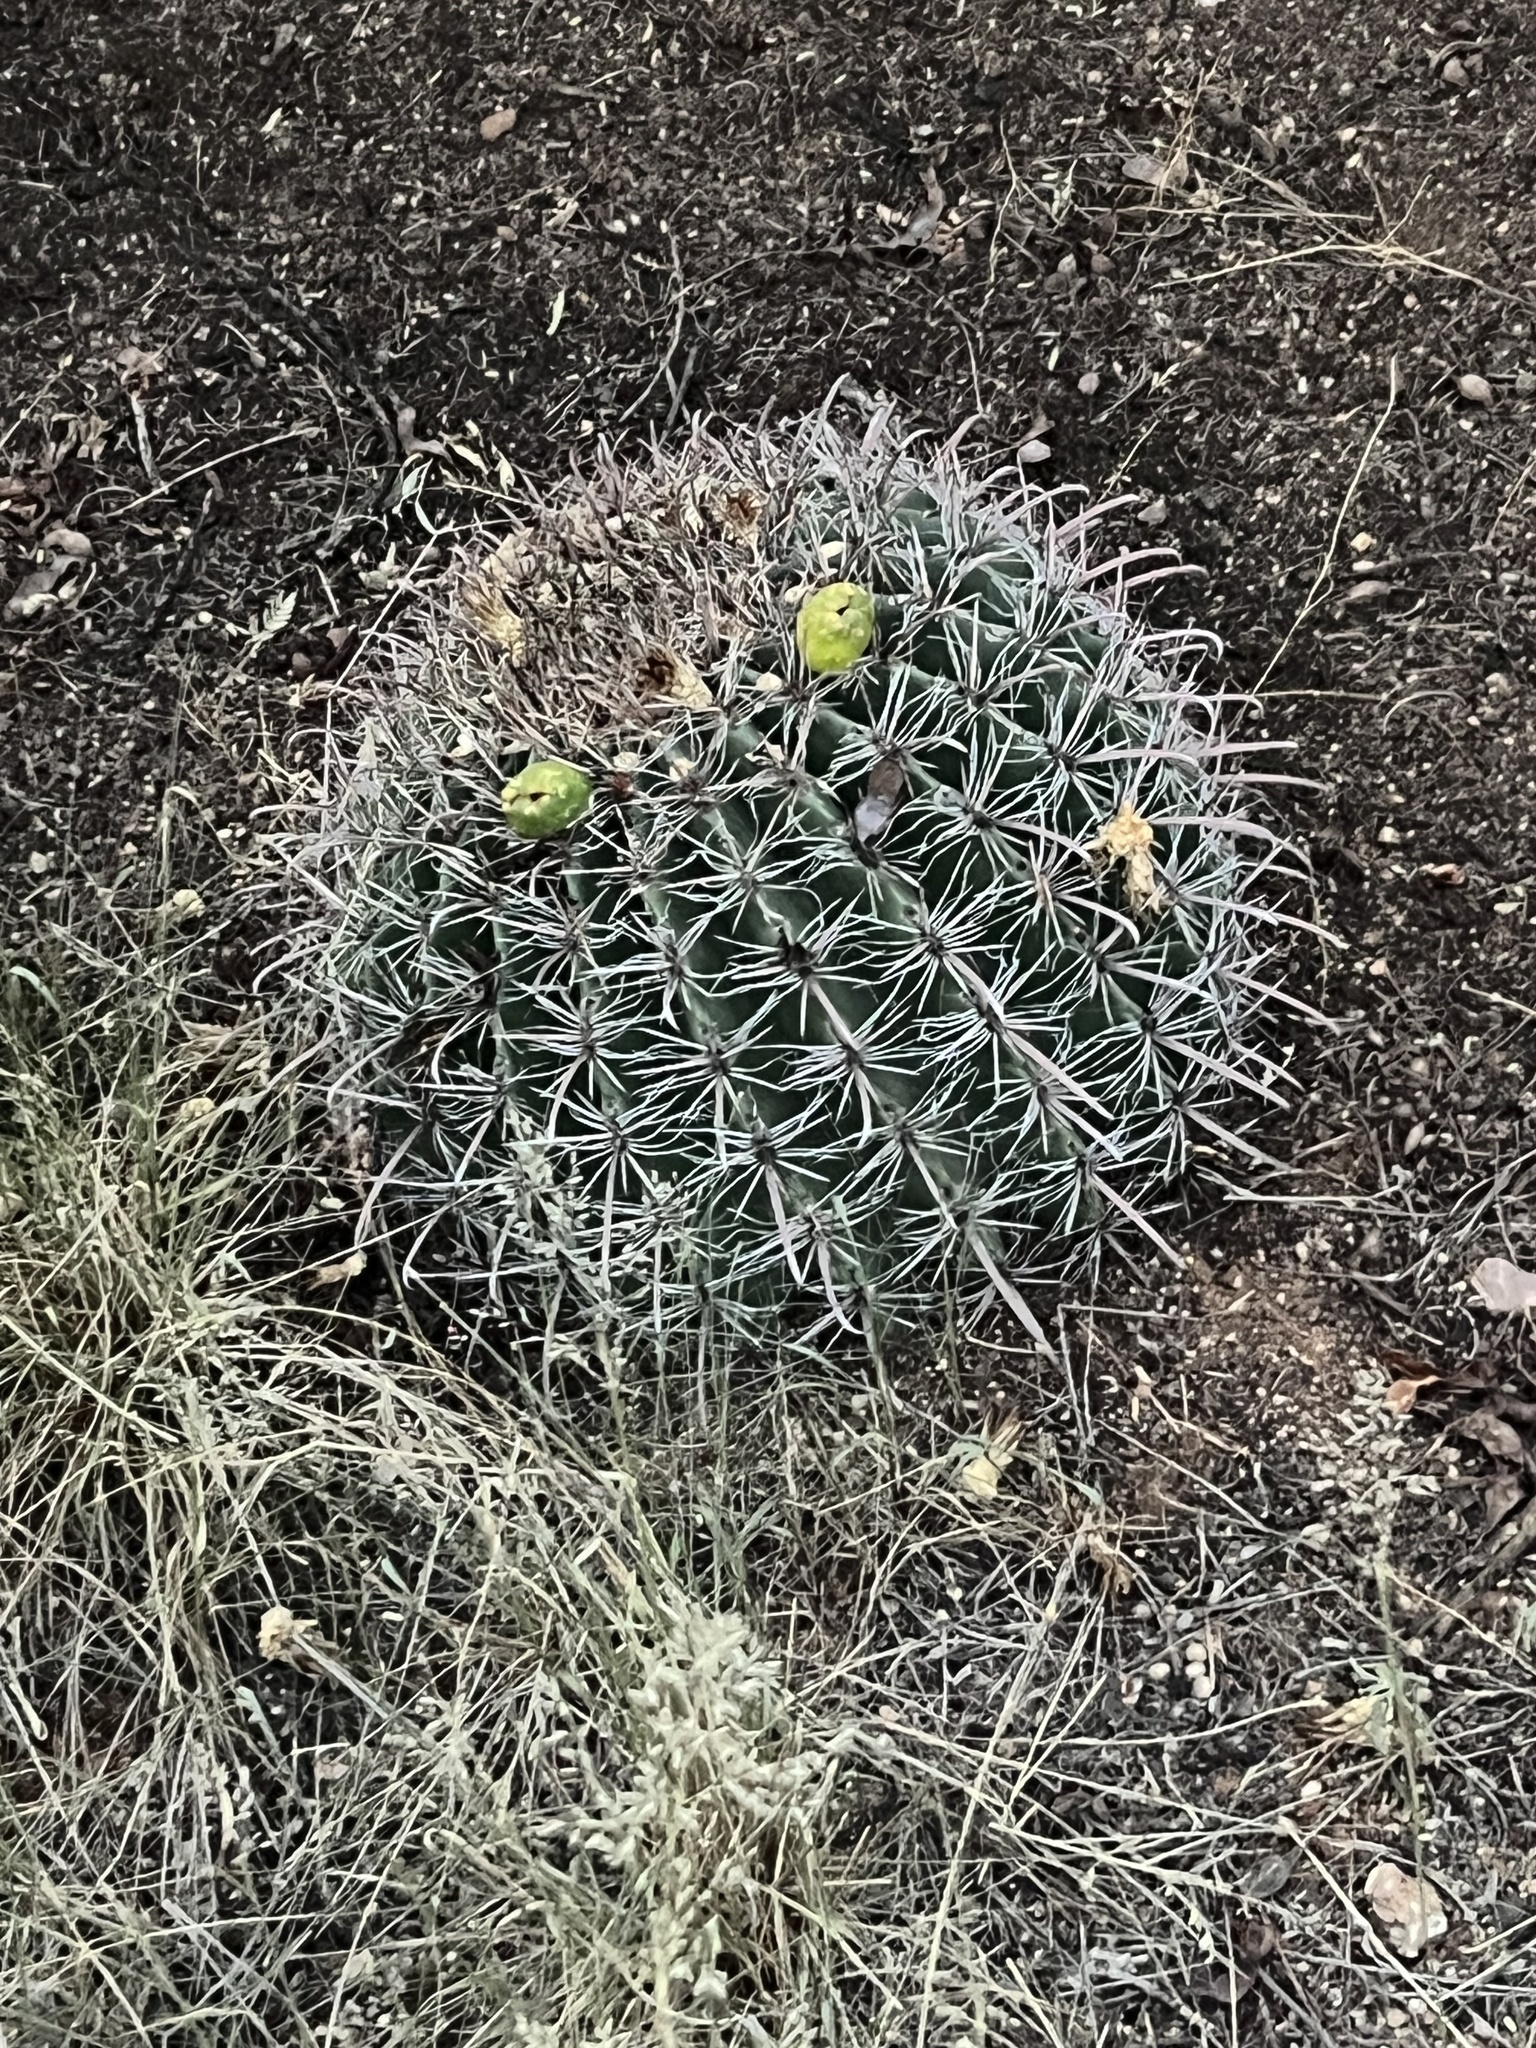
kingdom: Plantae
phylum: Tracheophyta
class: Magnoliopsida
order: Caryophyllales
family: Cactaceae
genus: Ferocactus
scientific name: Ferocactus wislizeni
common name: Candy barrel cactus
